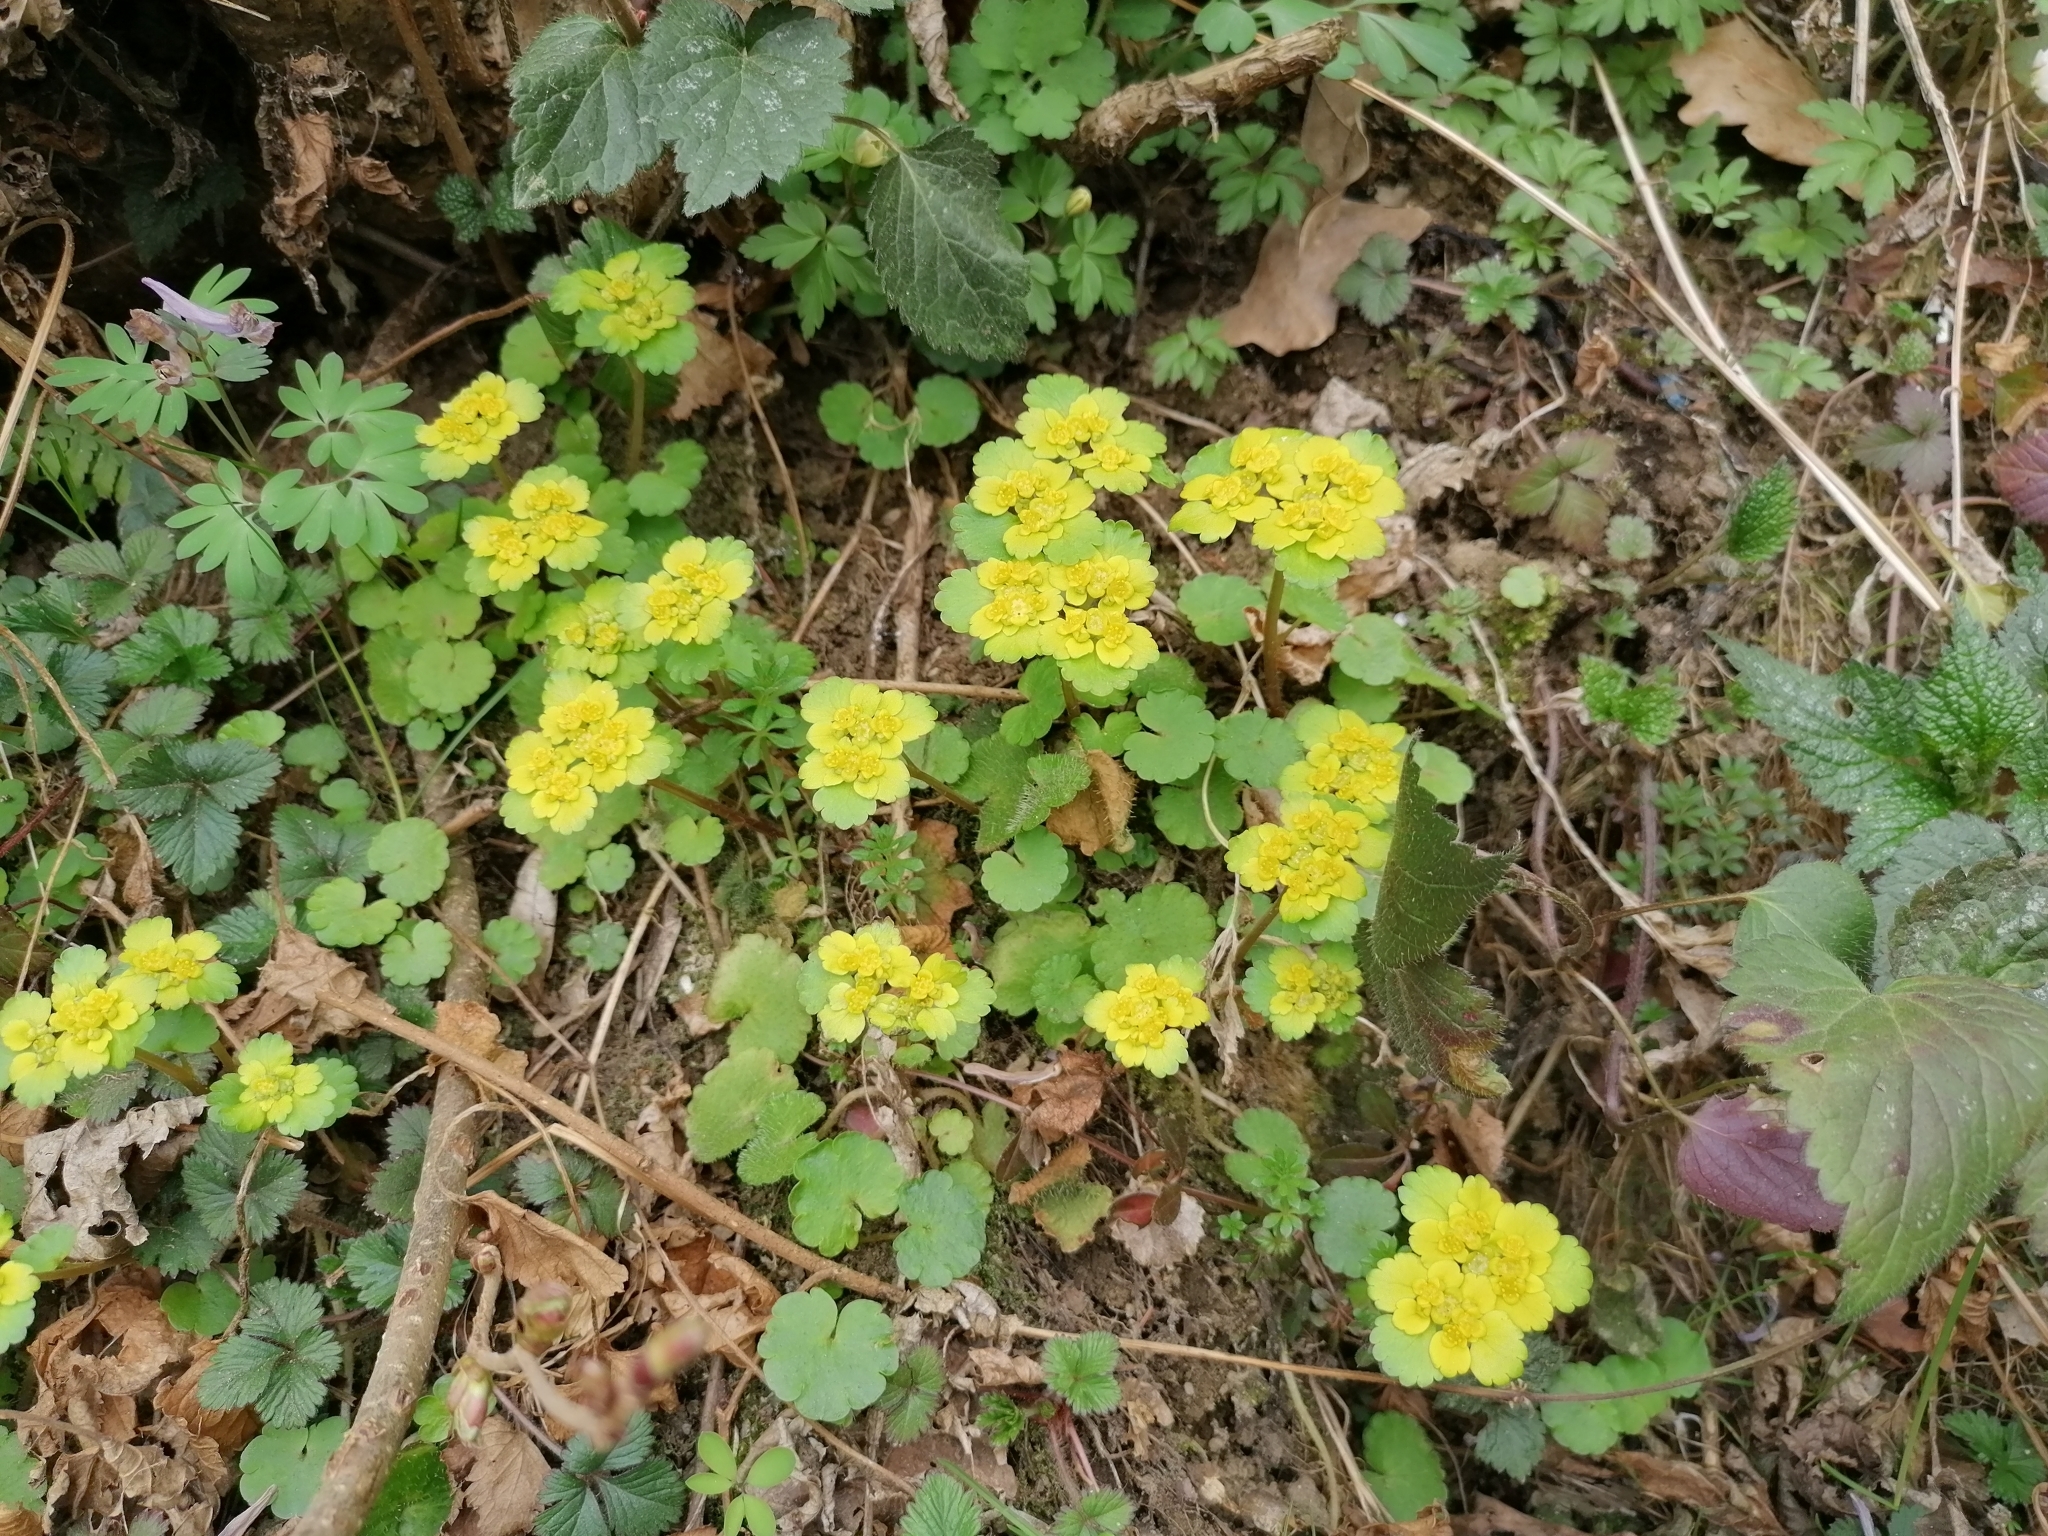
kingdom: Plantae
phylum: Tracheophyta
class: Magnoliopsida
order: Saxifragales
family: Saxifragaceae
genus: Chrysosplenium
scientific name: Chrysosplenium alternifolium
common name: Alternate-leaved golden-saxifrage
